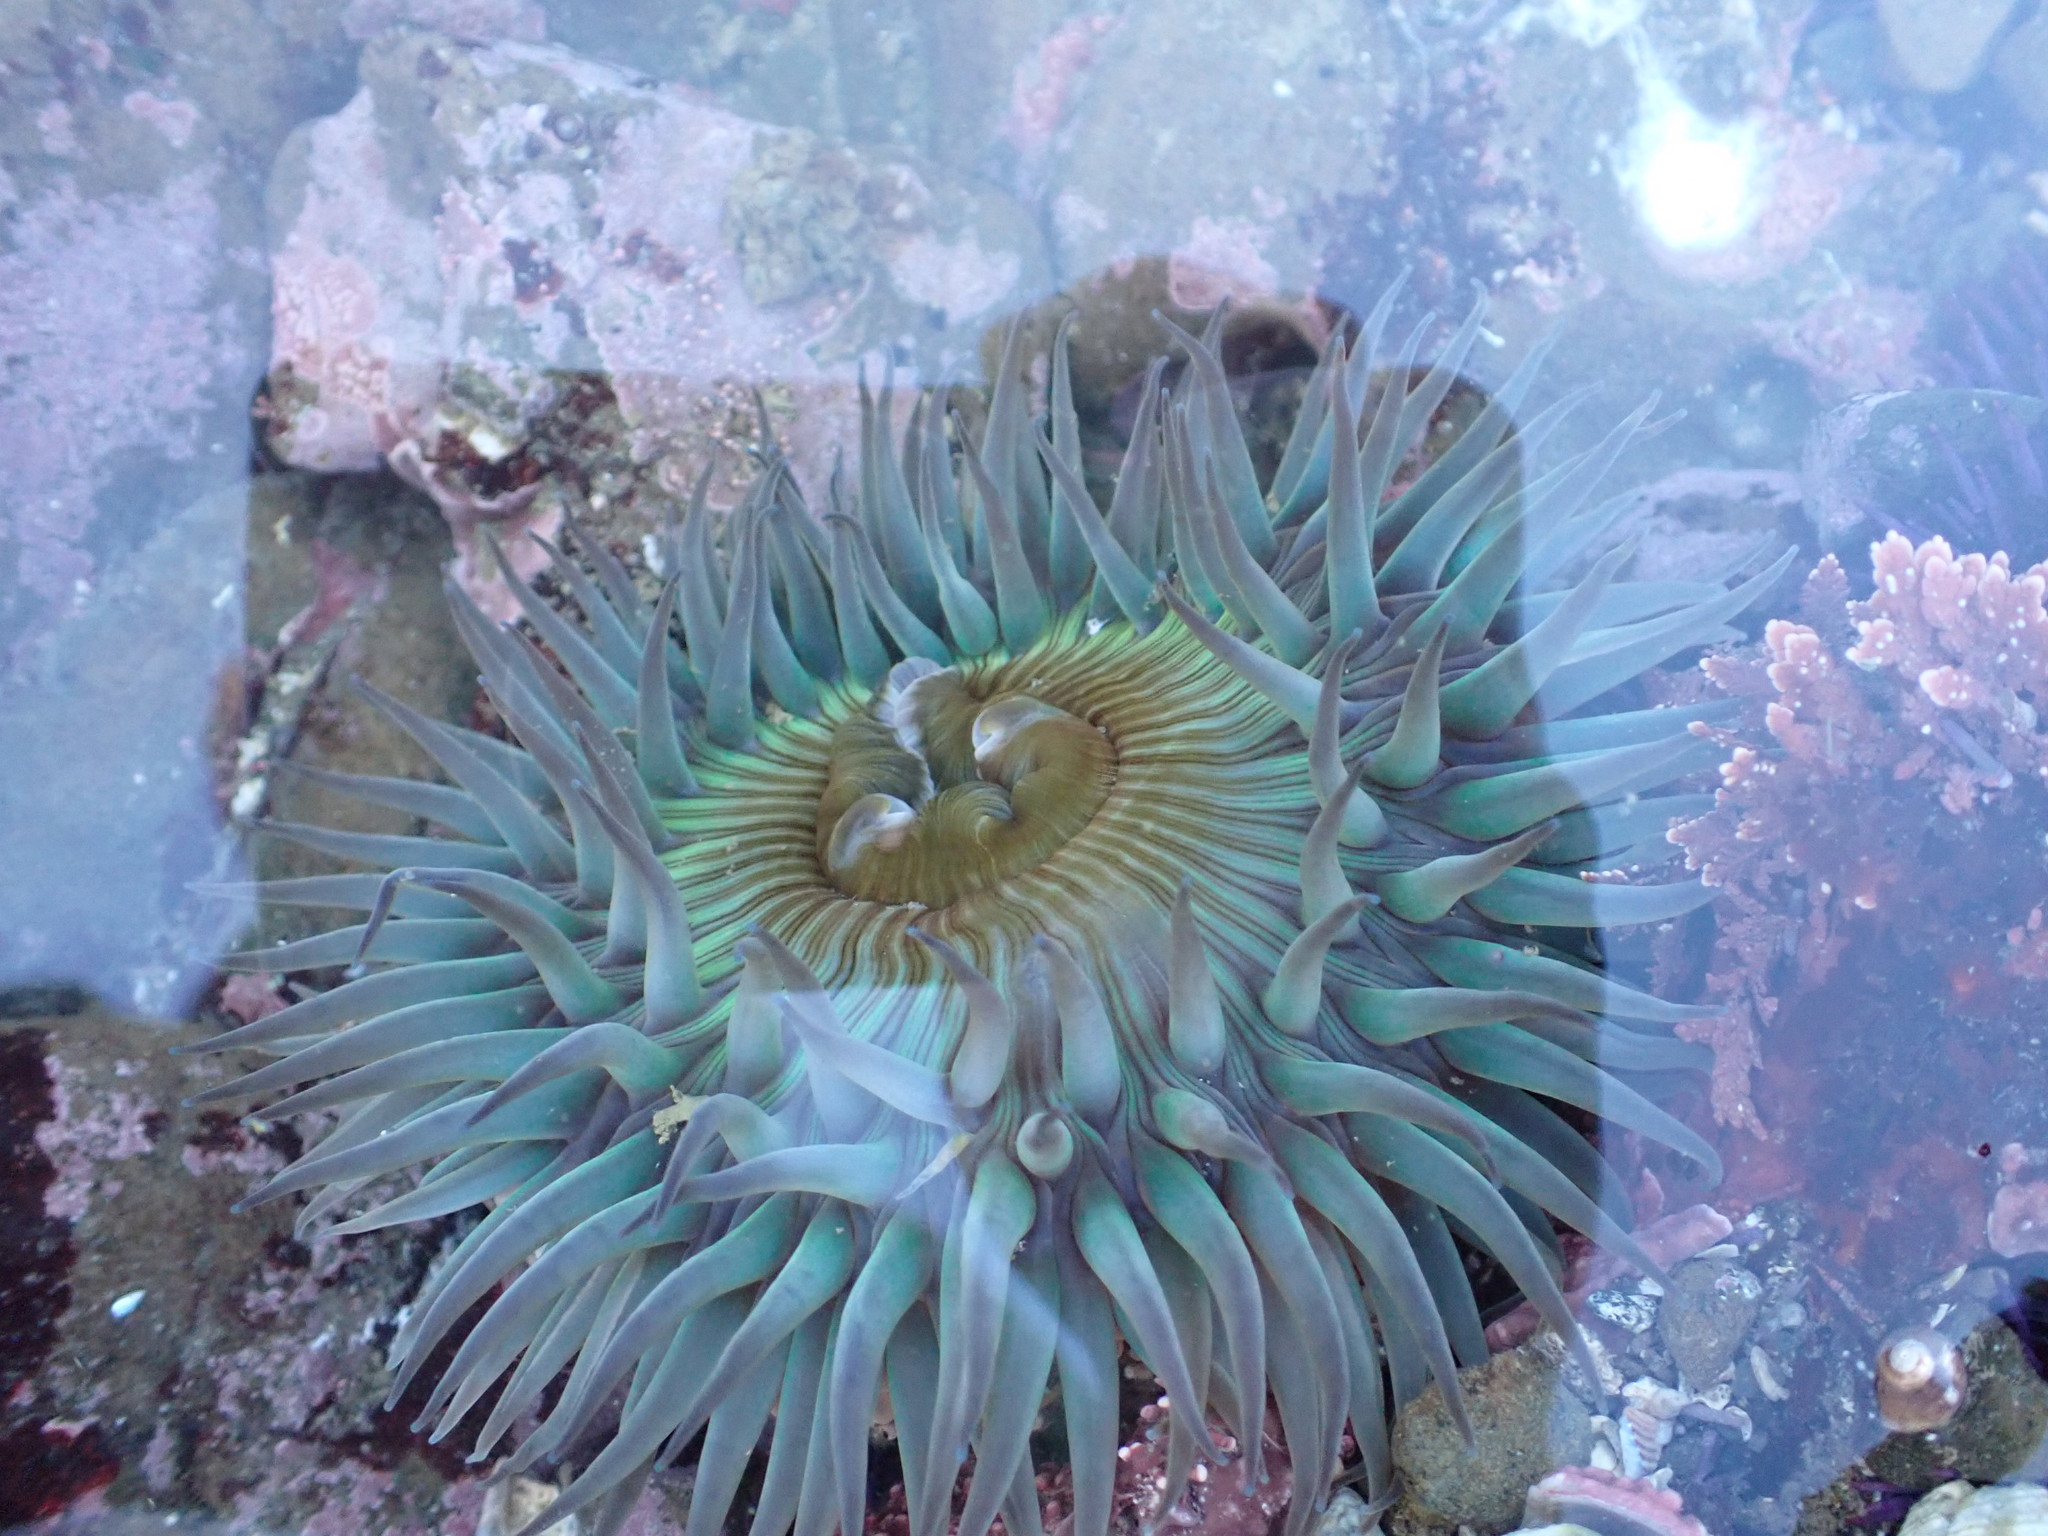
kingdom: Animalia
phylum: Cnidaria
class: Anthozoa
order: Actiniaria
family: Actiniidae
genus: Anthopleura
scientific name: Anthopleura sola
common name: Sun anemone
